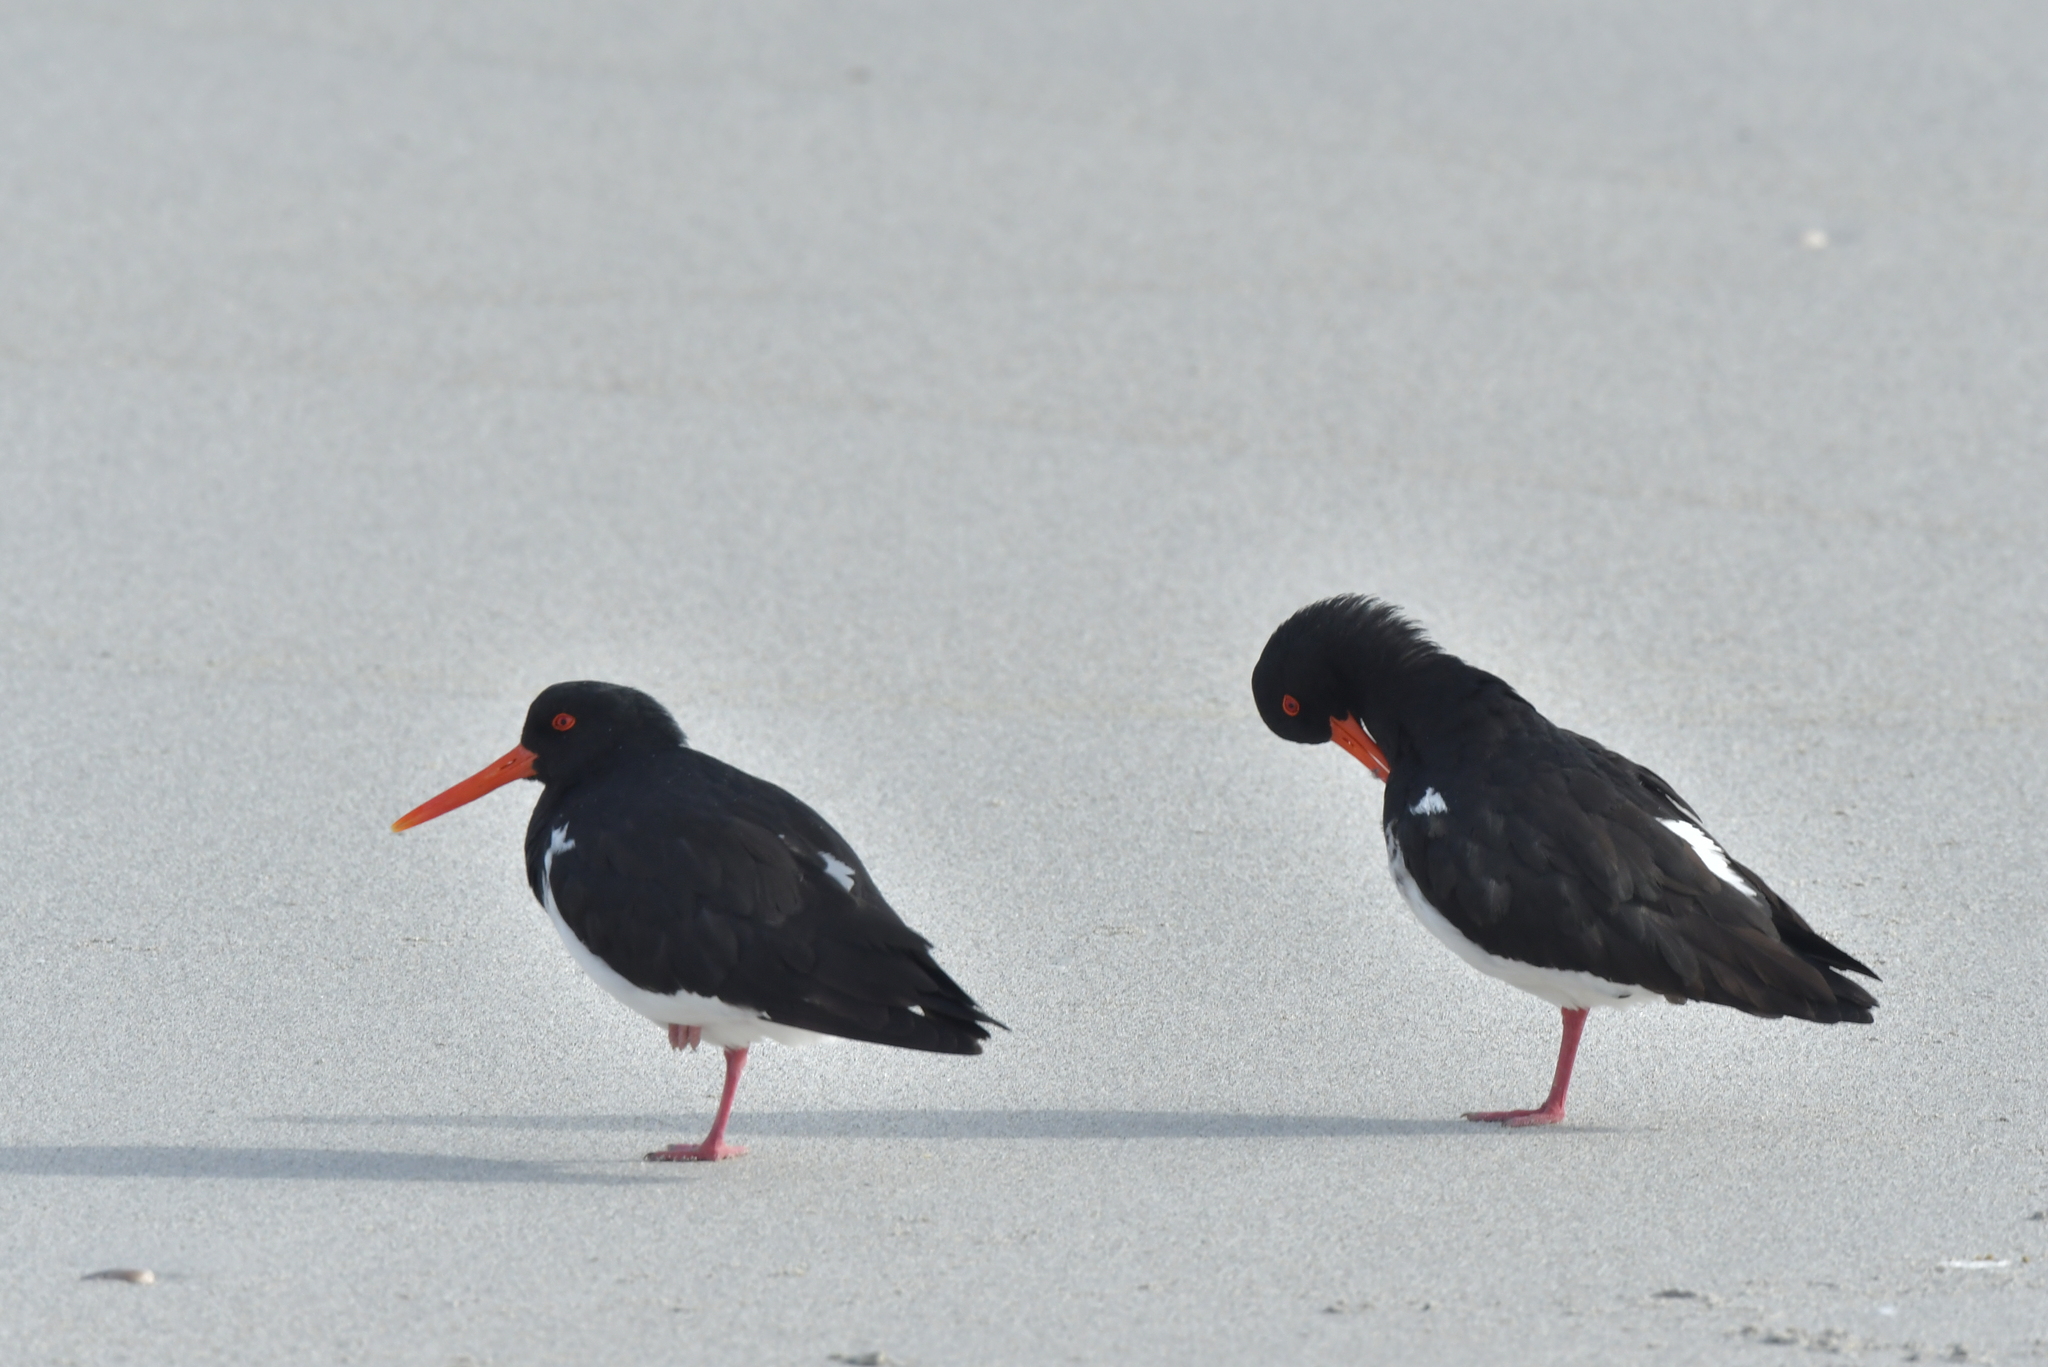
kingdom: Animalia
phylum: Chordata
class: Aves
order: Charadriiformes
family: Haematopodidae
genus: Haematopus
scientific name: Haematopus chathamensis
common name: Chatham oystercatcher
